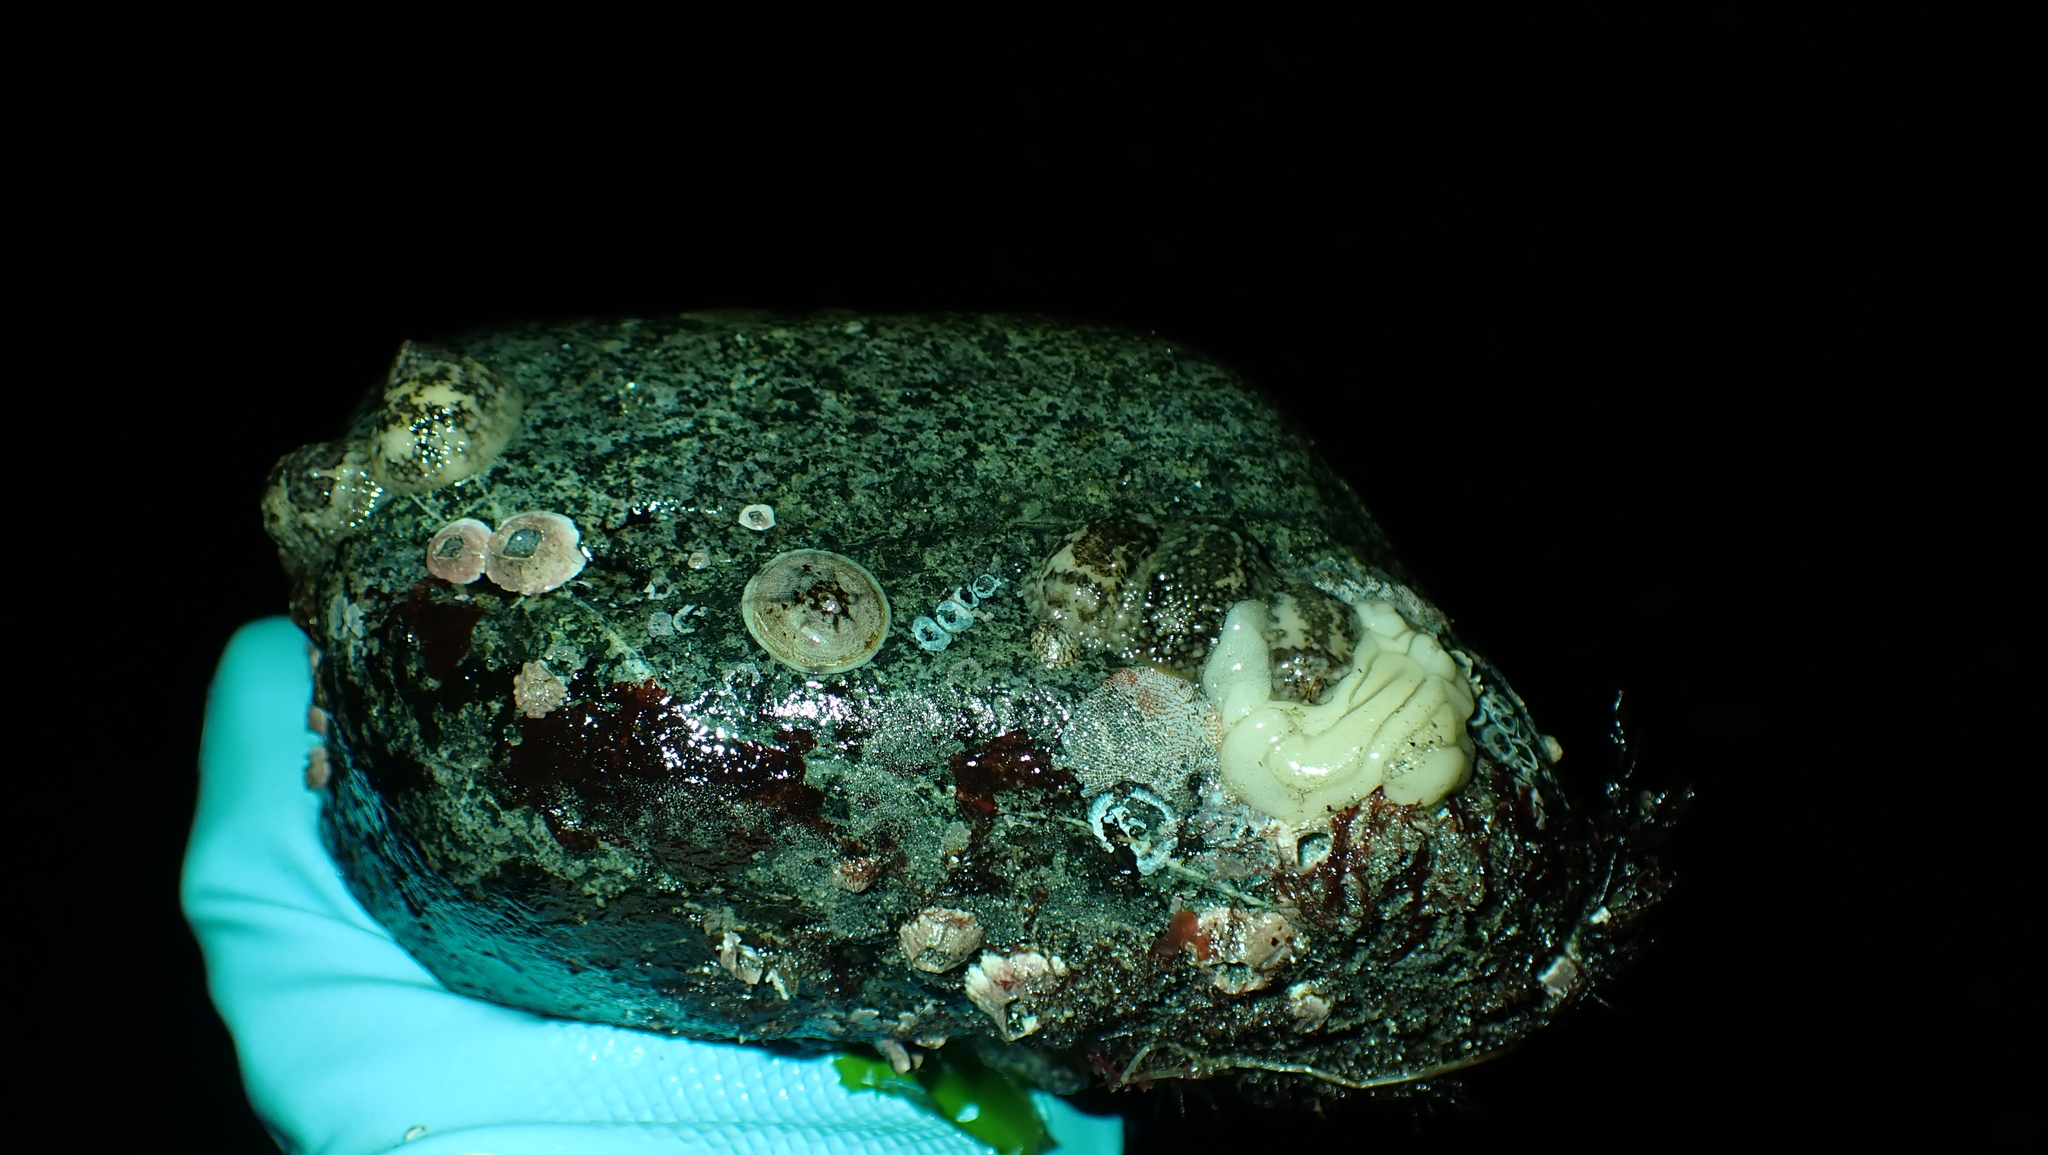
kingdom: Animalia
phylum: Mollusca
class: Gastropoda
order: Nudibranchia
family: Onchidorididae
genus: Onchidoris
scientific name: Onchidoris bilamellata
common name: Barnacle-eating onchidoris
